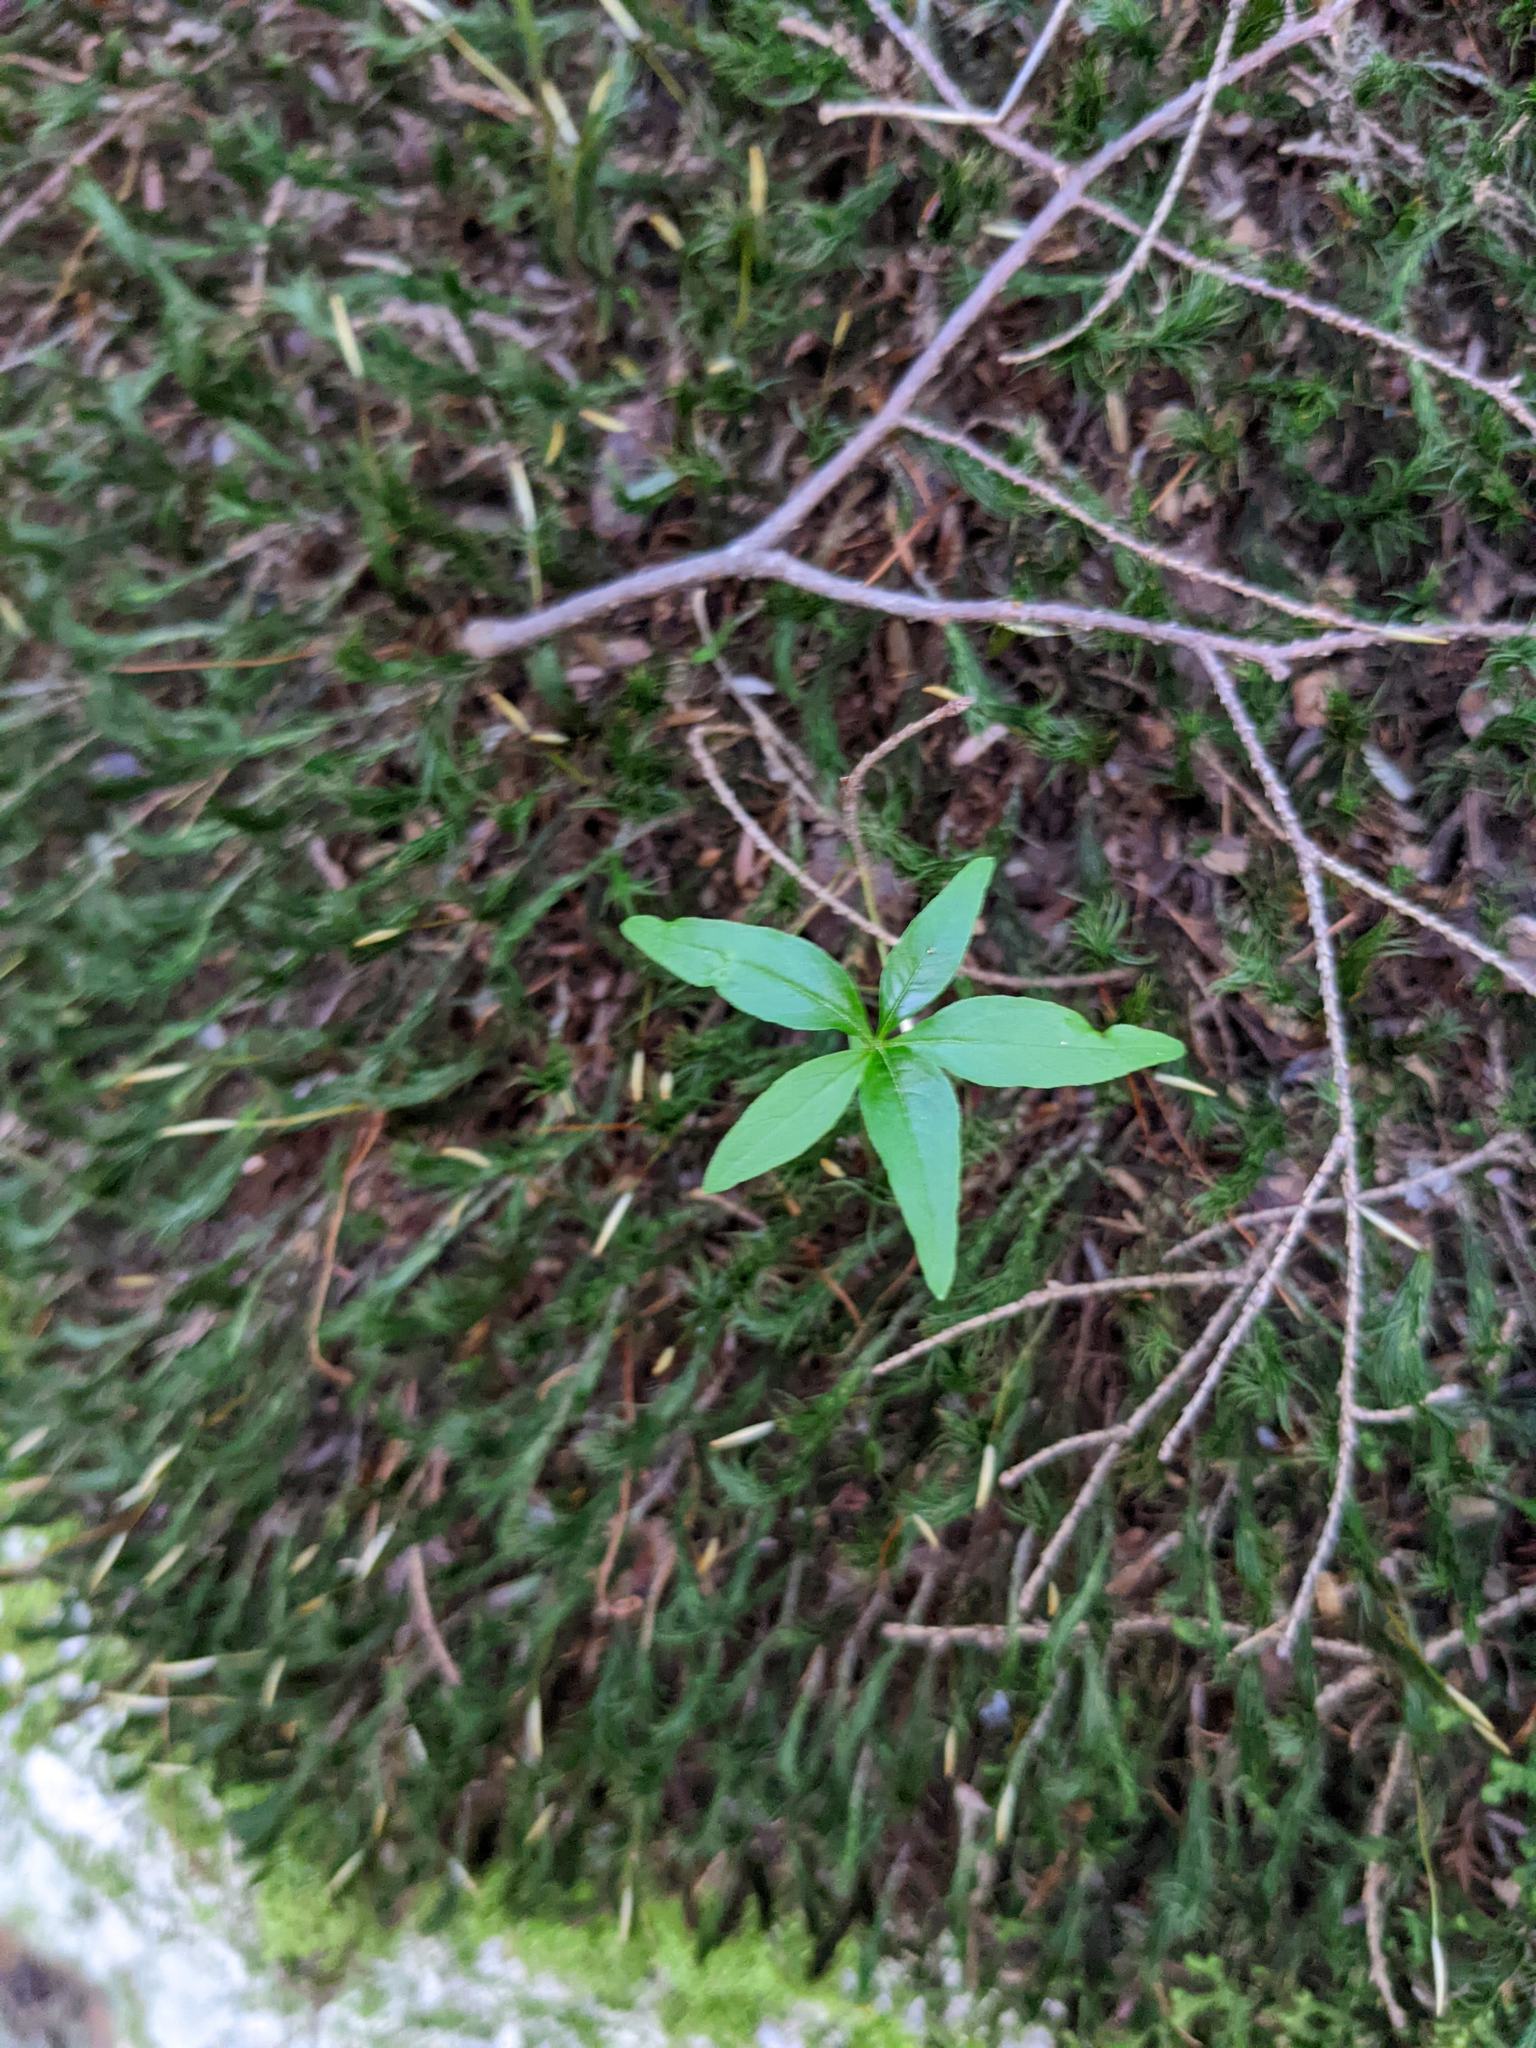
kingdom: Plantae
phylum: Tracheophyta
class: Magnoliopsida
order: Ericales
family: Primulaceae
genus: Lysimachia
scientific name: Lysimachia borealis
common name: American starflower
